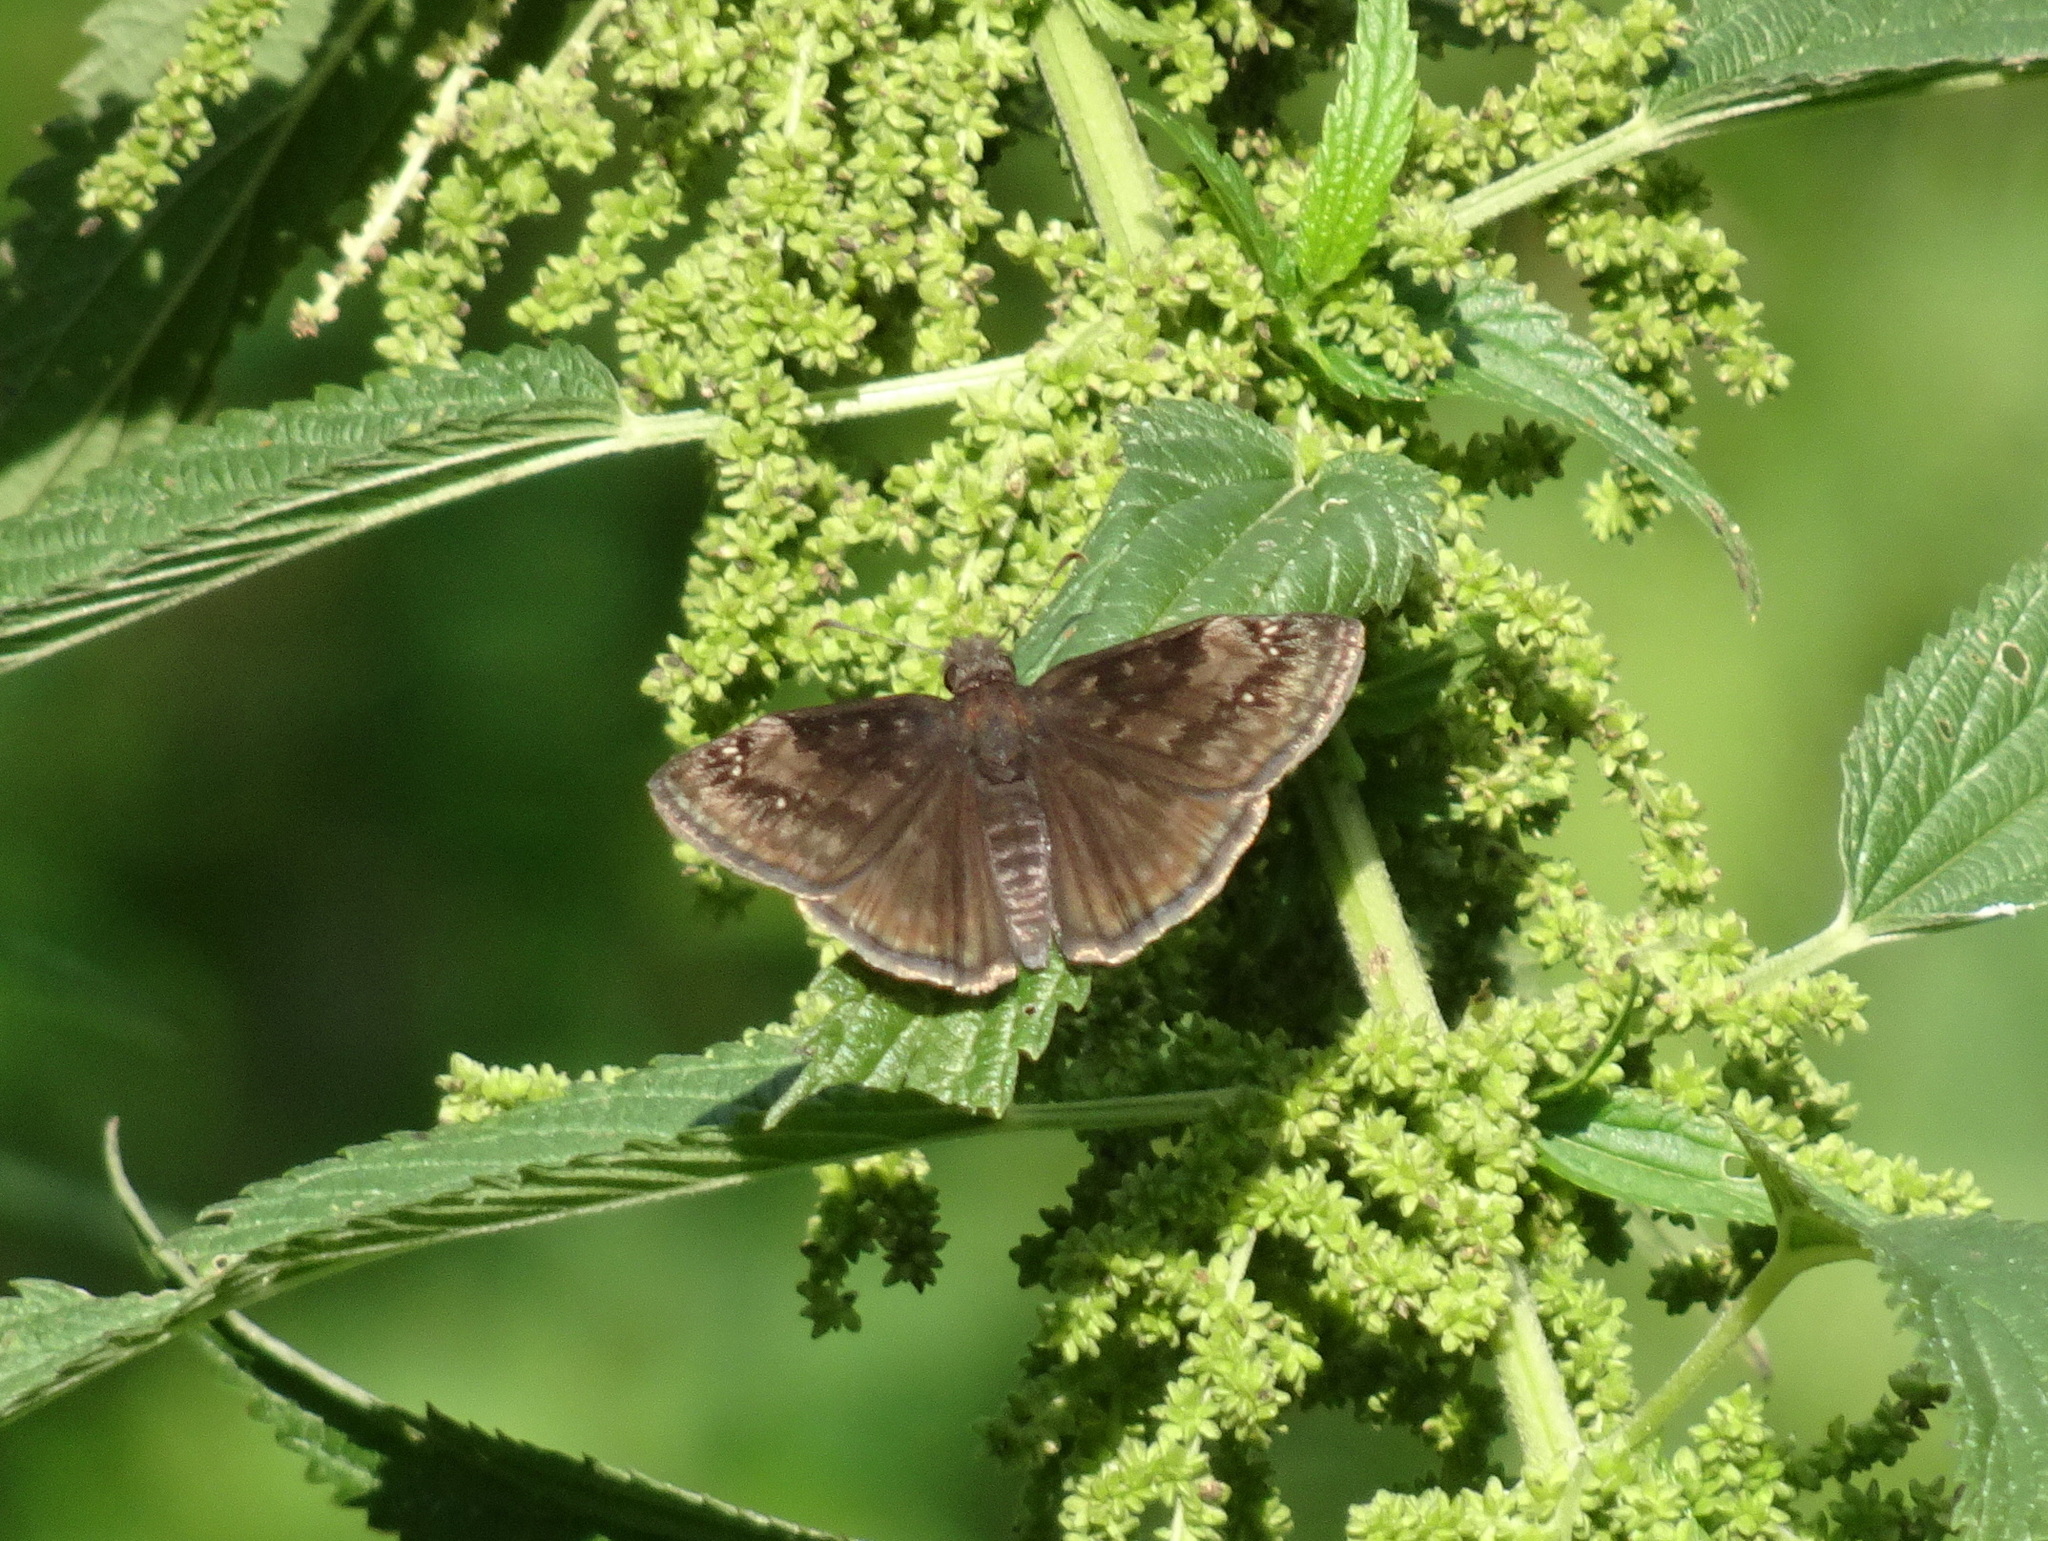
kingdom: Animalia
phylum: Arthropoda
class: Insecta
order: Lepidoptera
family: Hesperiidae
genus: Erynnis
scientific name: Erynnis baptisiae
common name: Wild indigo duskywing
